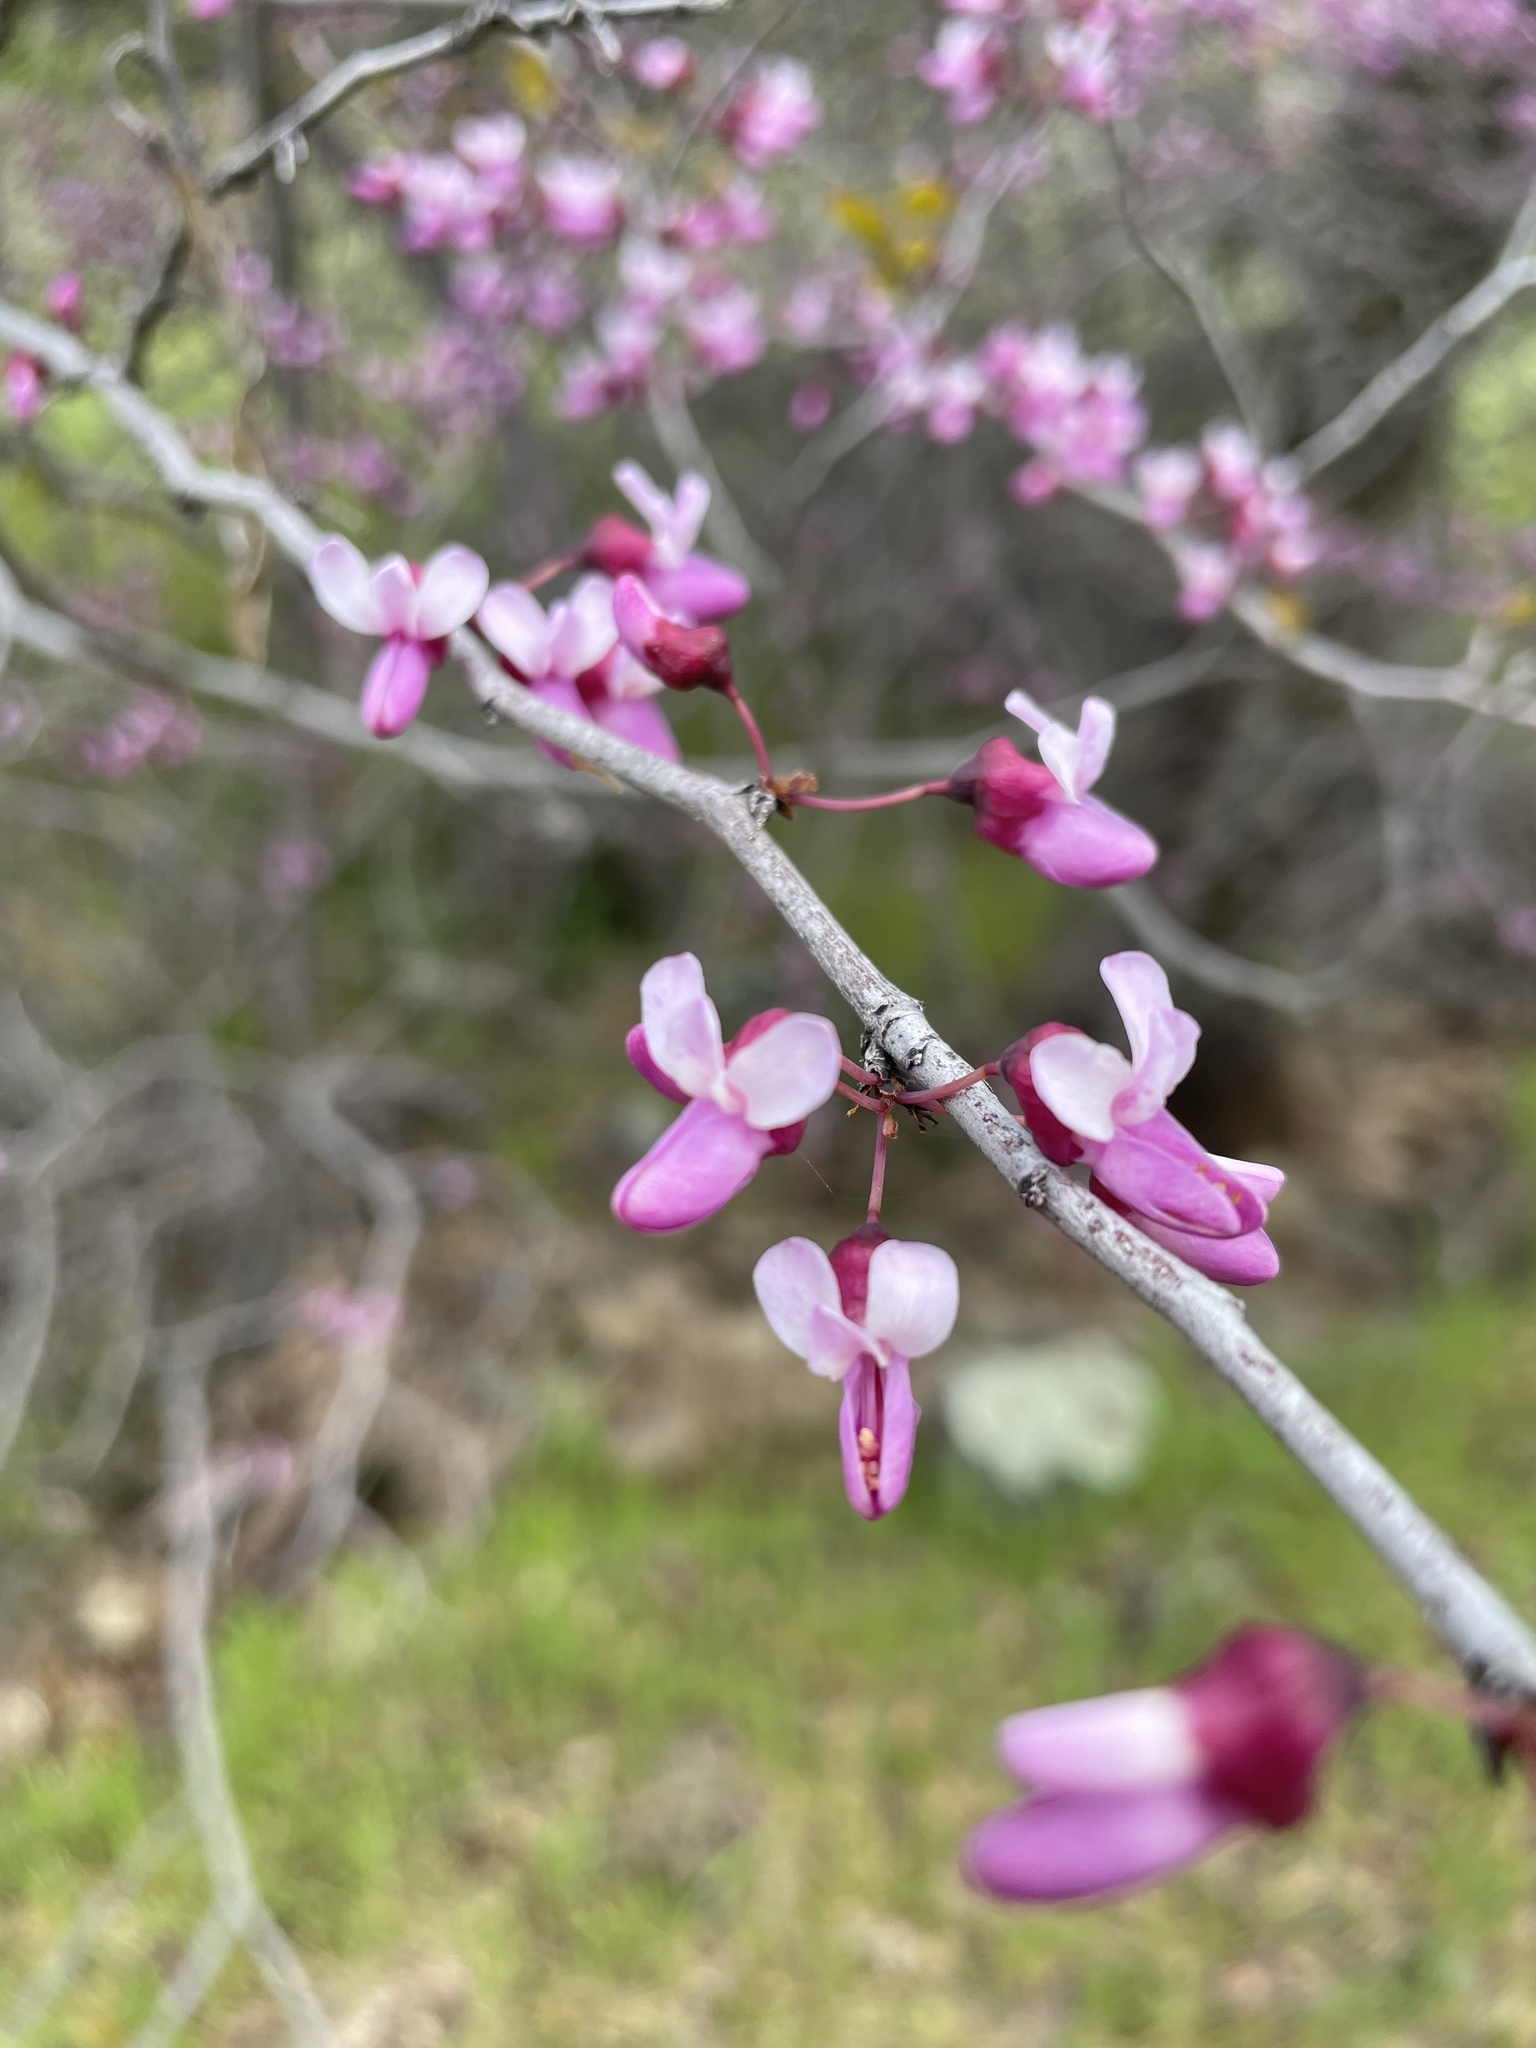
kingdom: Plantae
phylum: Tracheophyta
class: Magnoliopsida
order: Fabales
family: Fabaceae
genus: Cercis
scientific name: Cercis occidentalis
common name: California redbud
